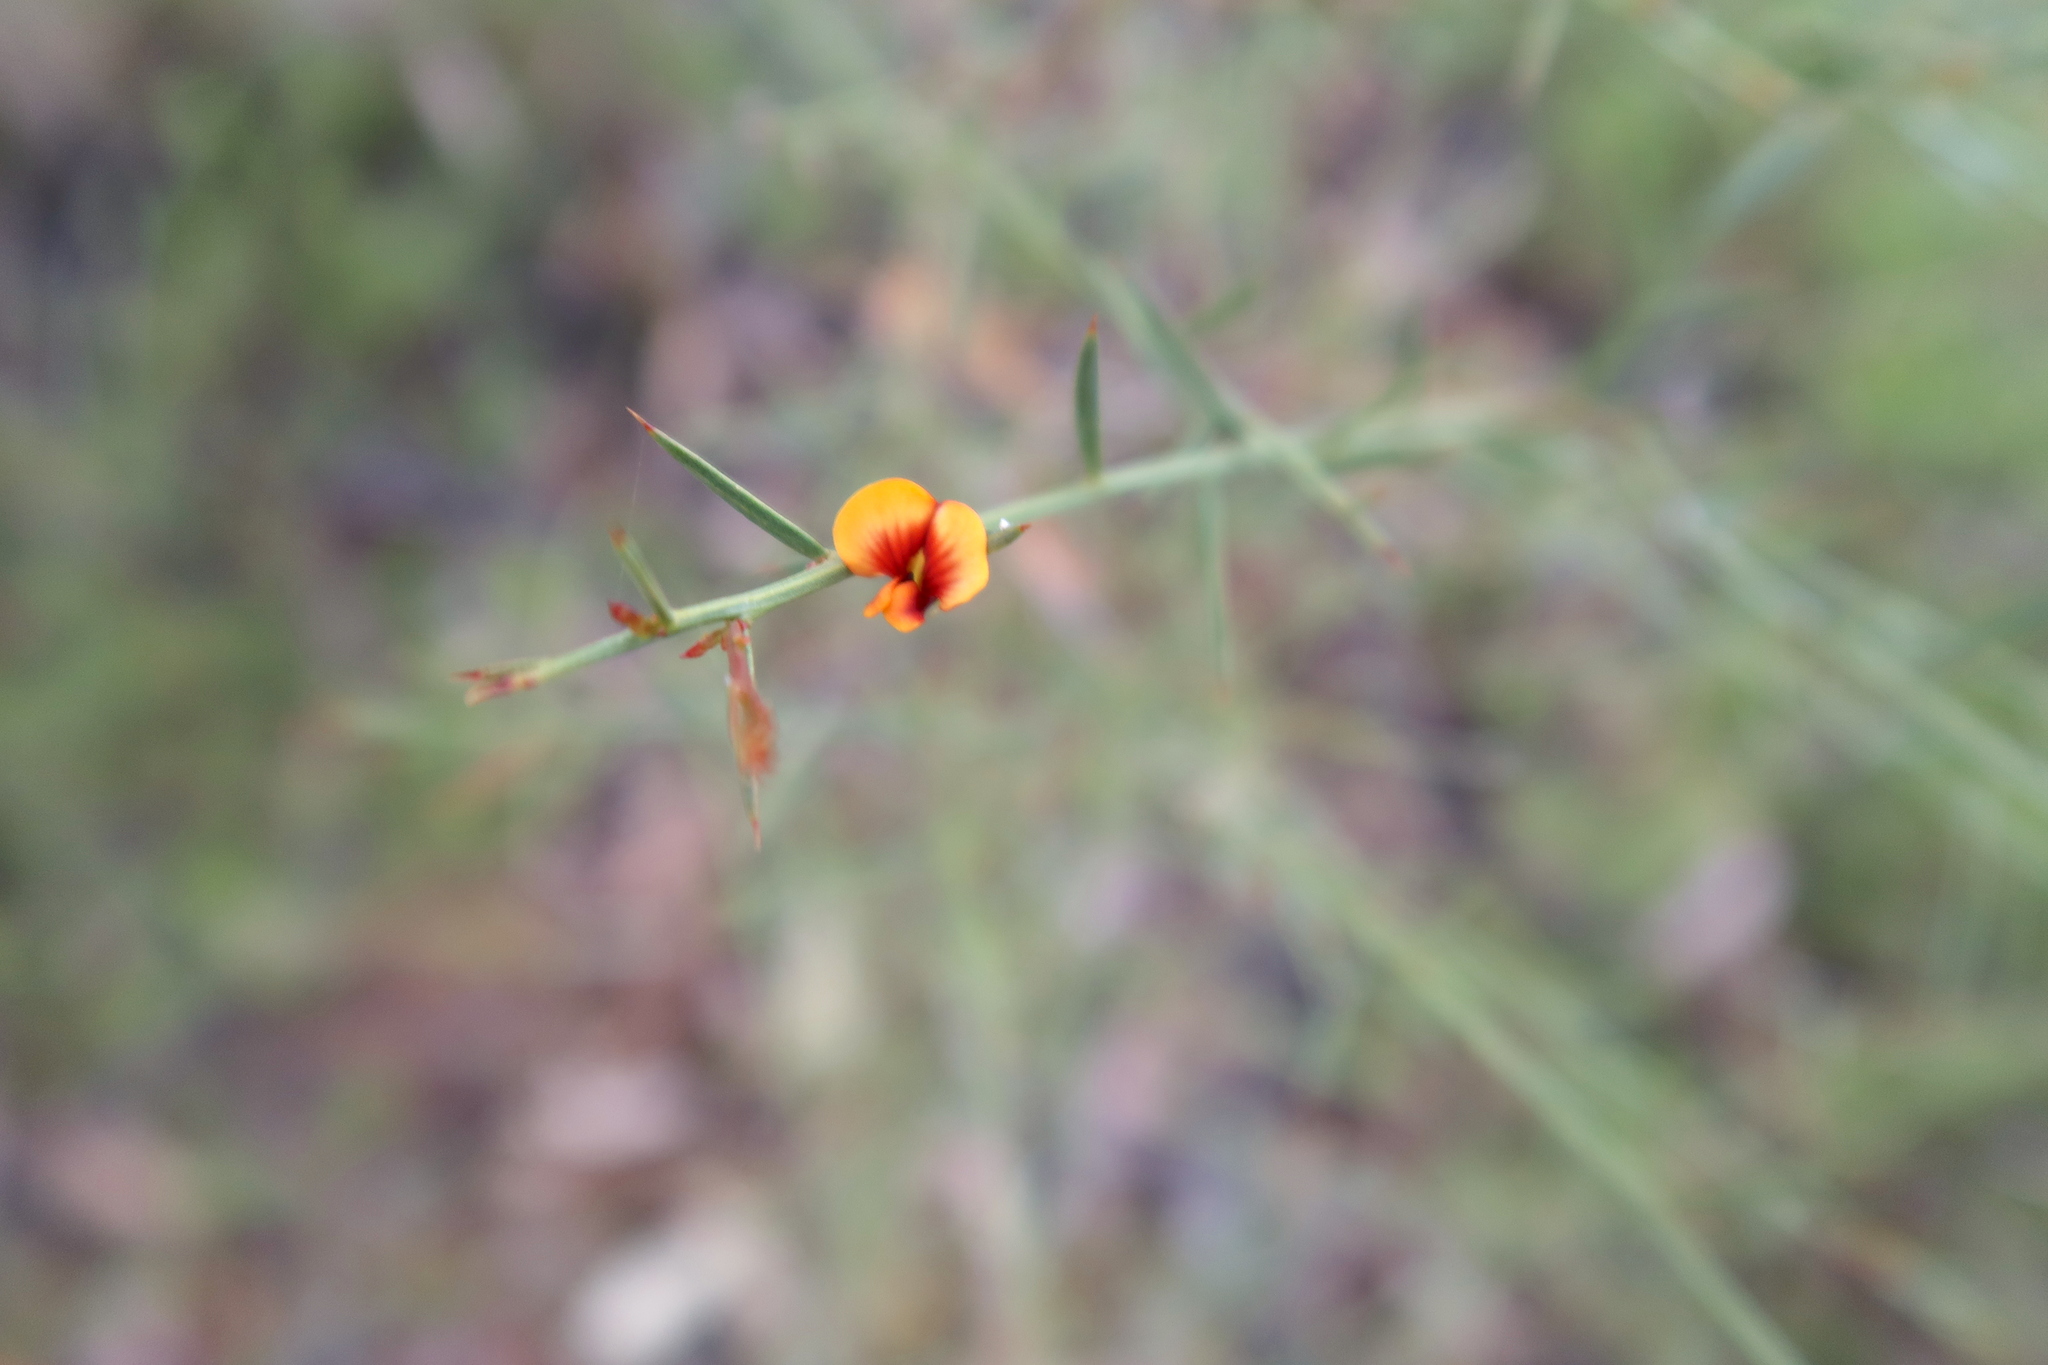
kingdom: Plantae
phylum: Tracheophyta
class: Magnoliopsida
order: Fabales
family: Fabaceae
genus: Daviesia
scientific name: Daviesia ulicifolia
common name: Gorse bitter-pea
